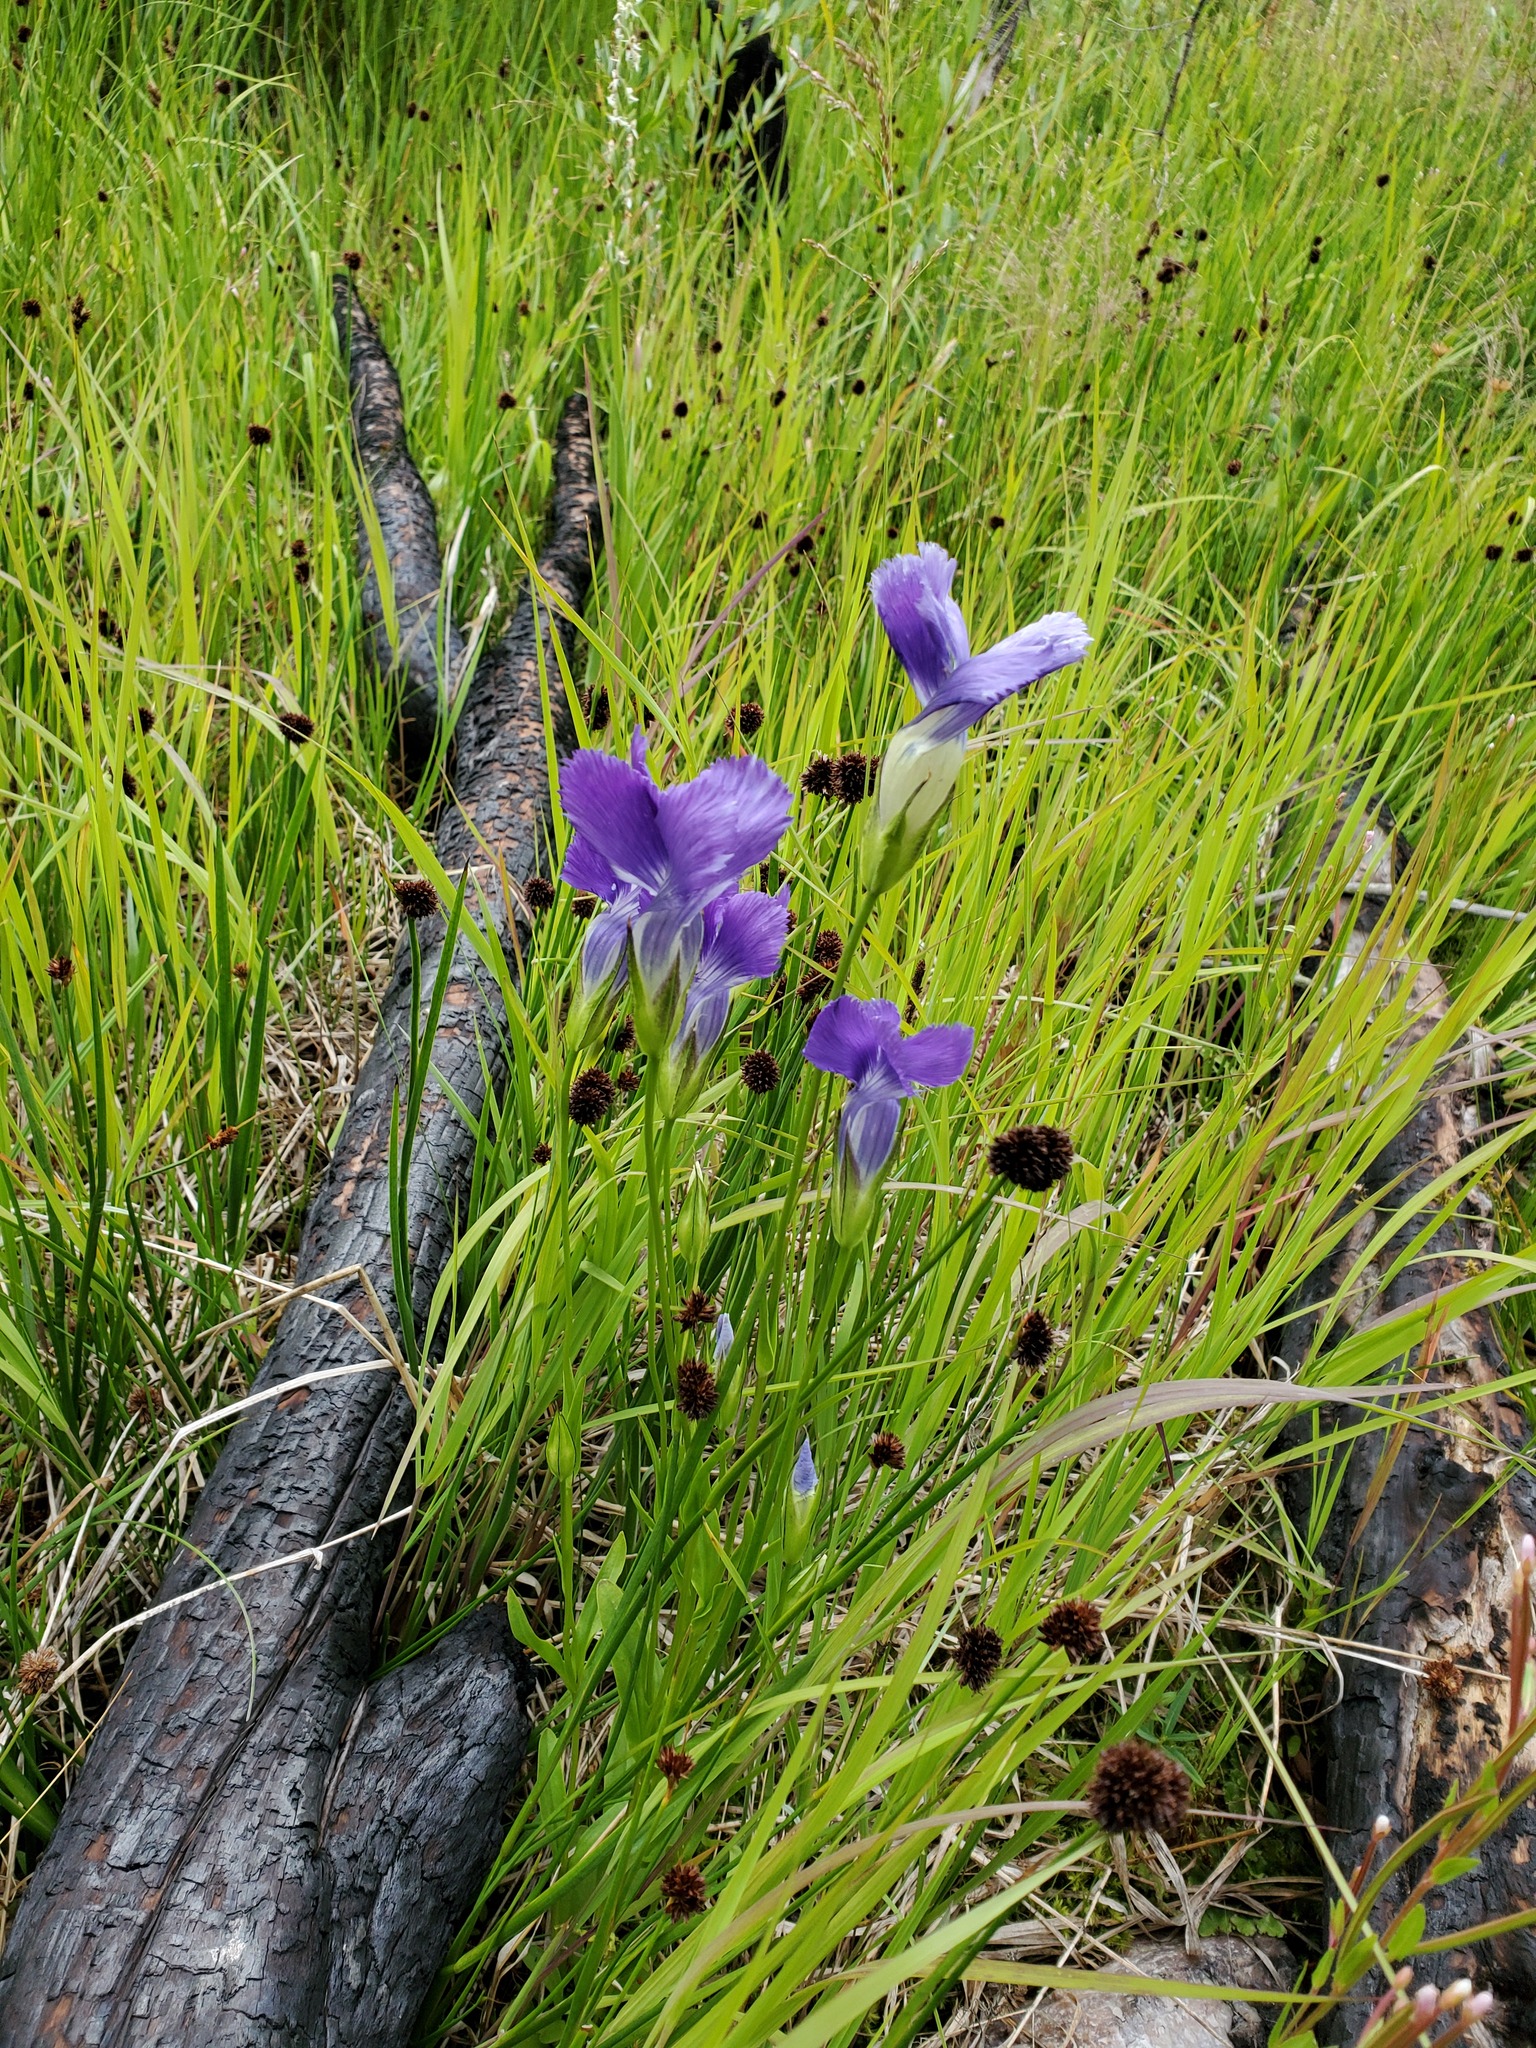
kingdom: Plantae
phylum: Tracheophyta
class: Magnoliopsida
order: Gentianales
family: Gentianaceae
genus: Gentianopsis
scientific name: Gentianopsis thermalis
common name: Rocky mountain fringed-gentian
